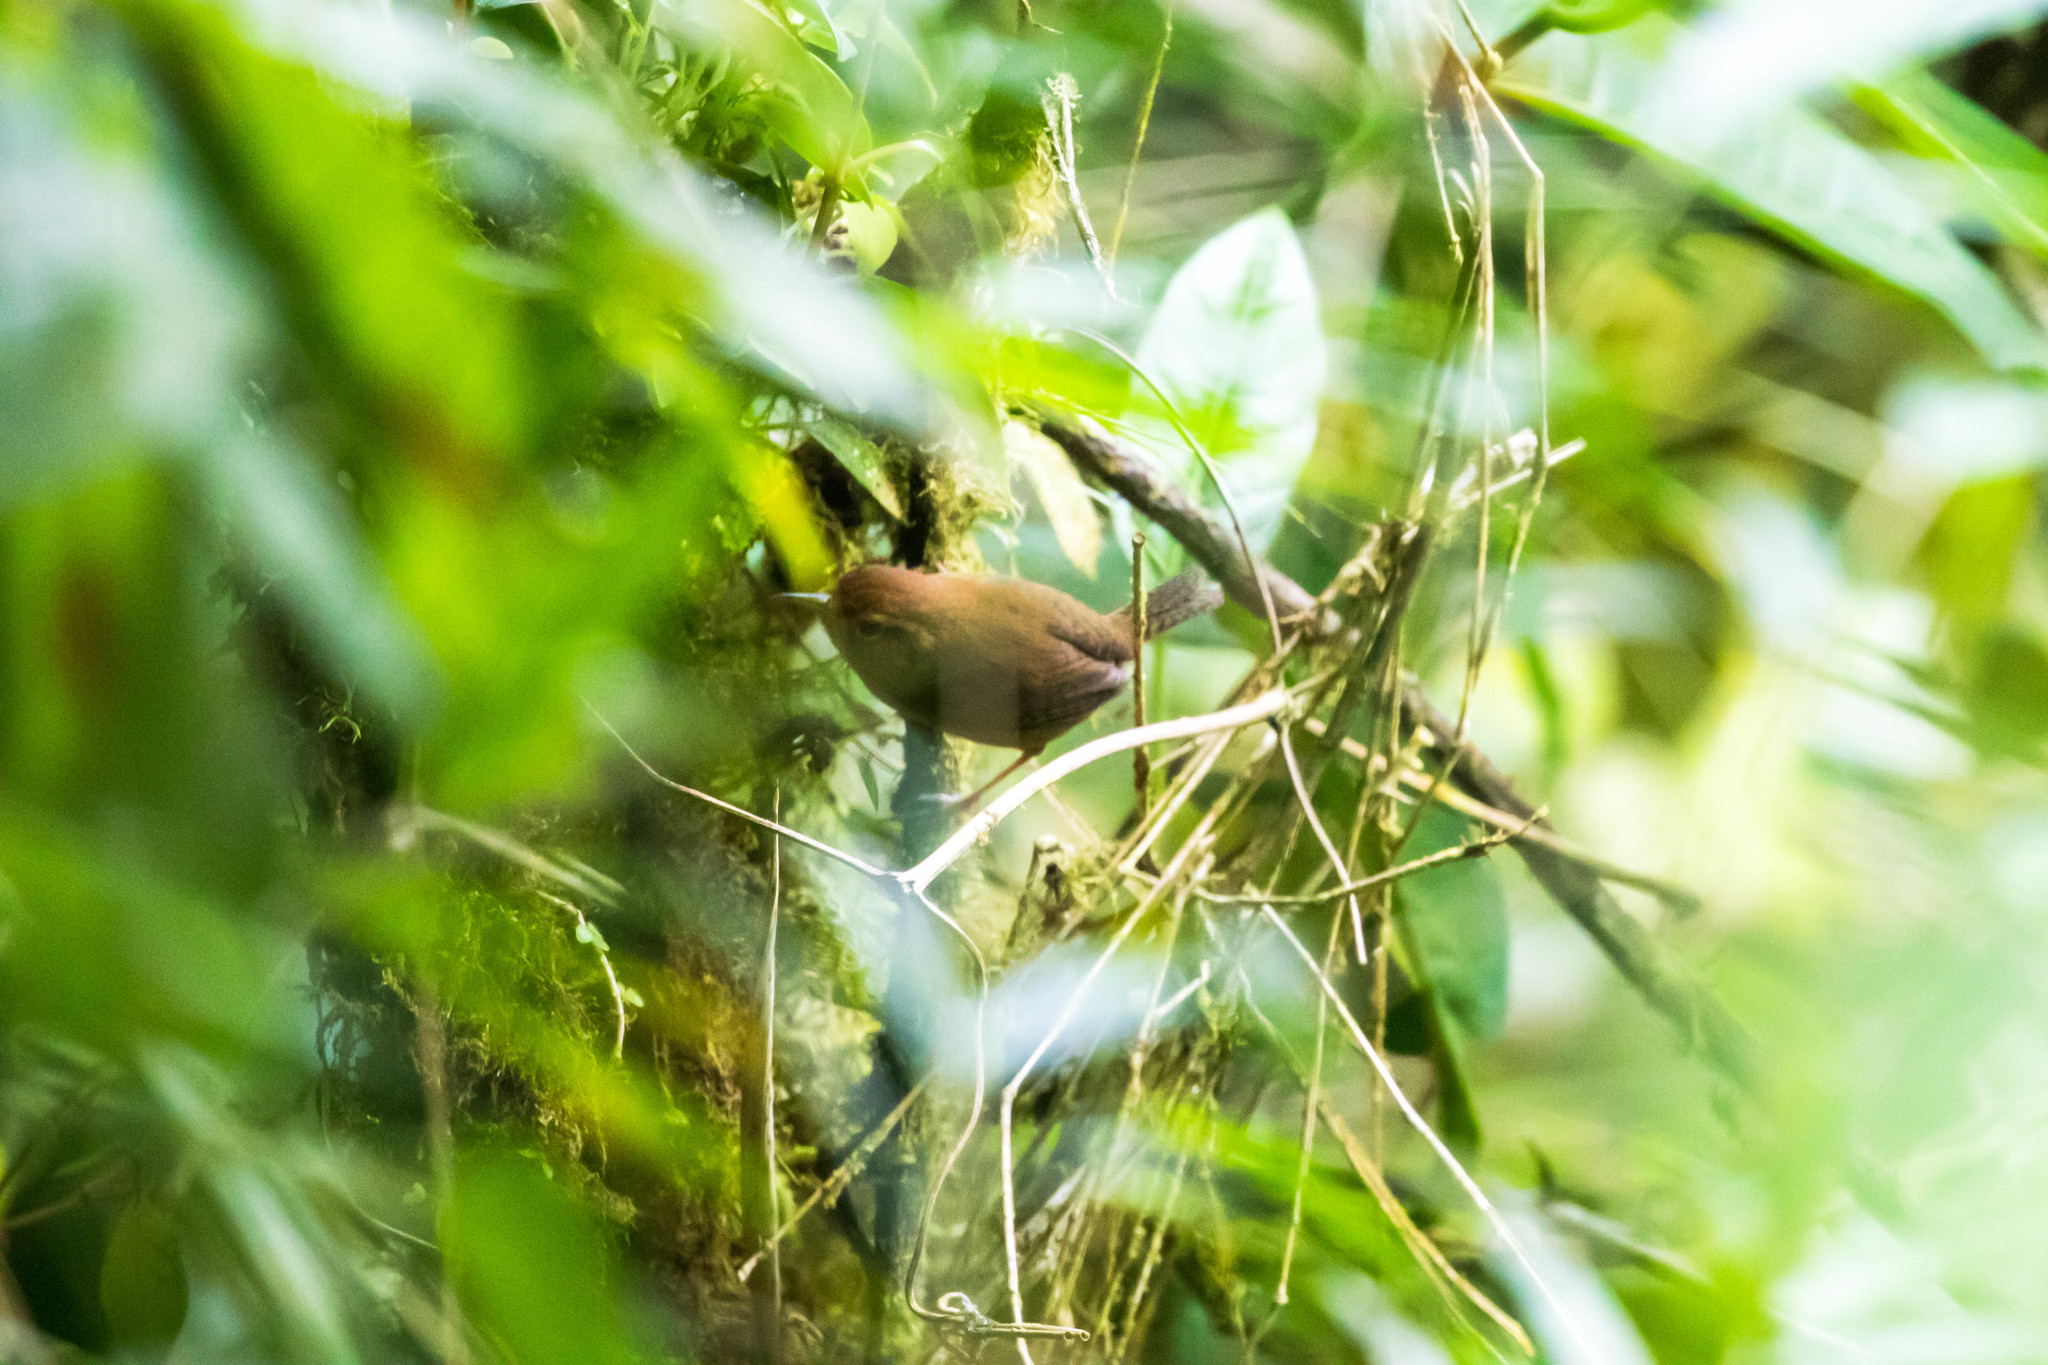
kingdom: Animalia
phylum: Chordata
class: Aves
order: Passeriformes
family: Troglodytidae
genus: Troglodytes
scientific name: Troglodytes ochraceus
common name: Ochraceous wren
